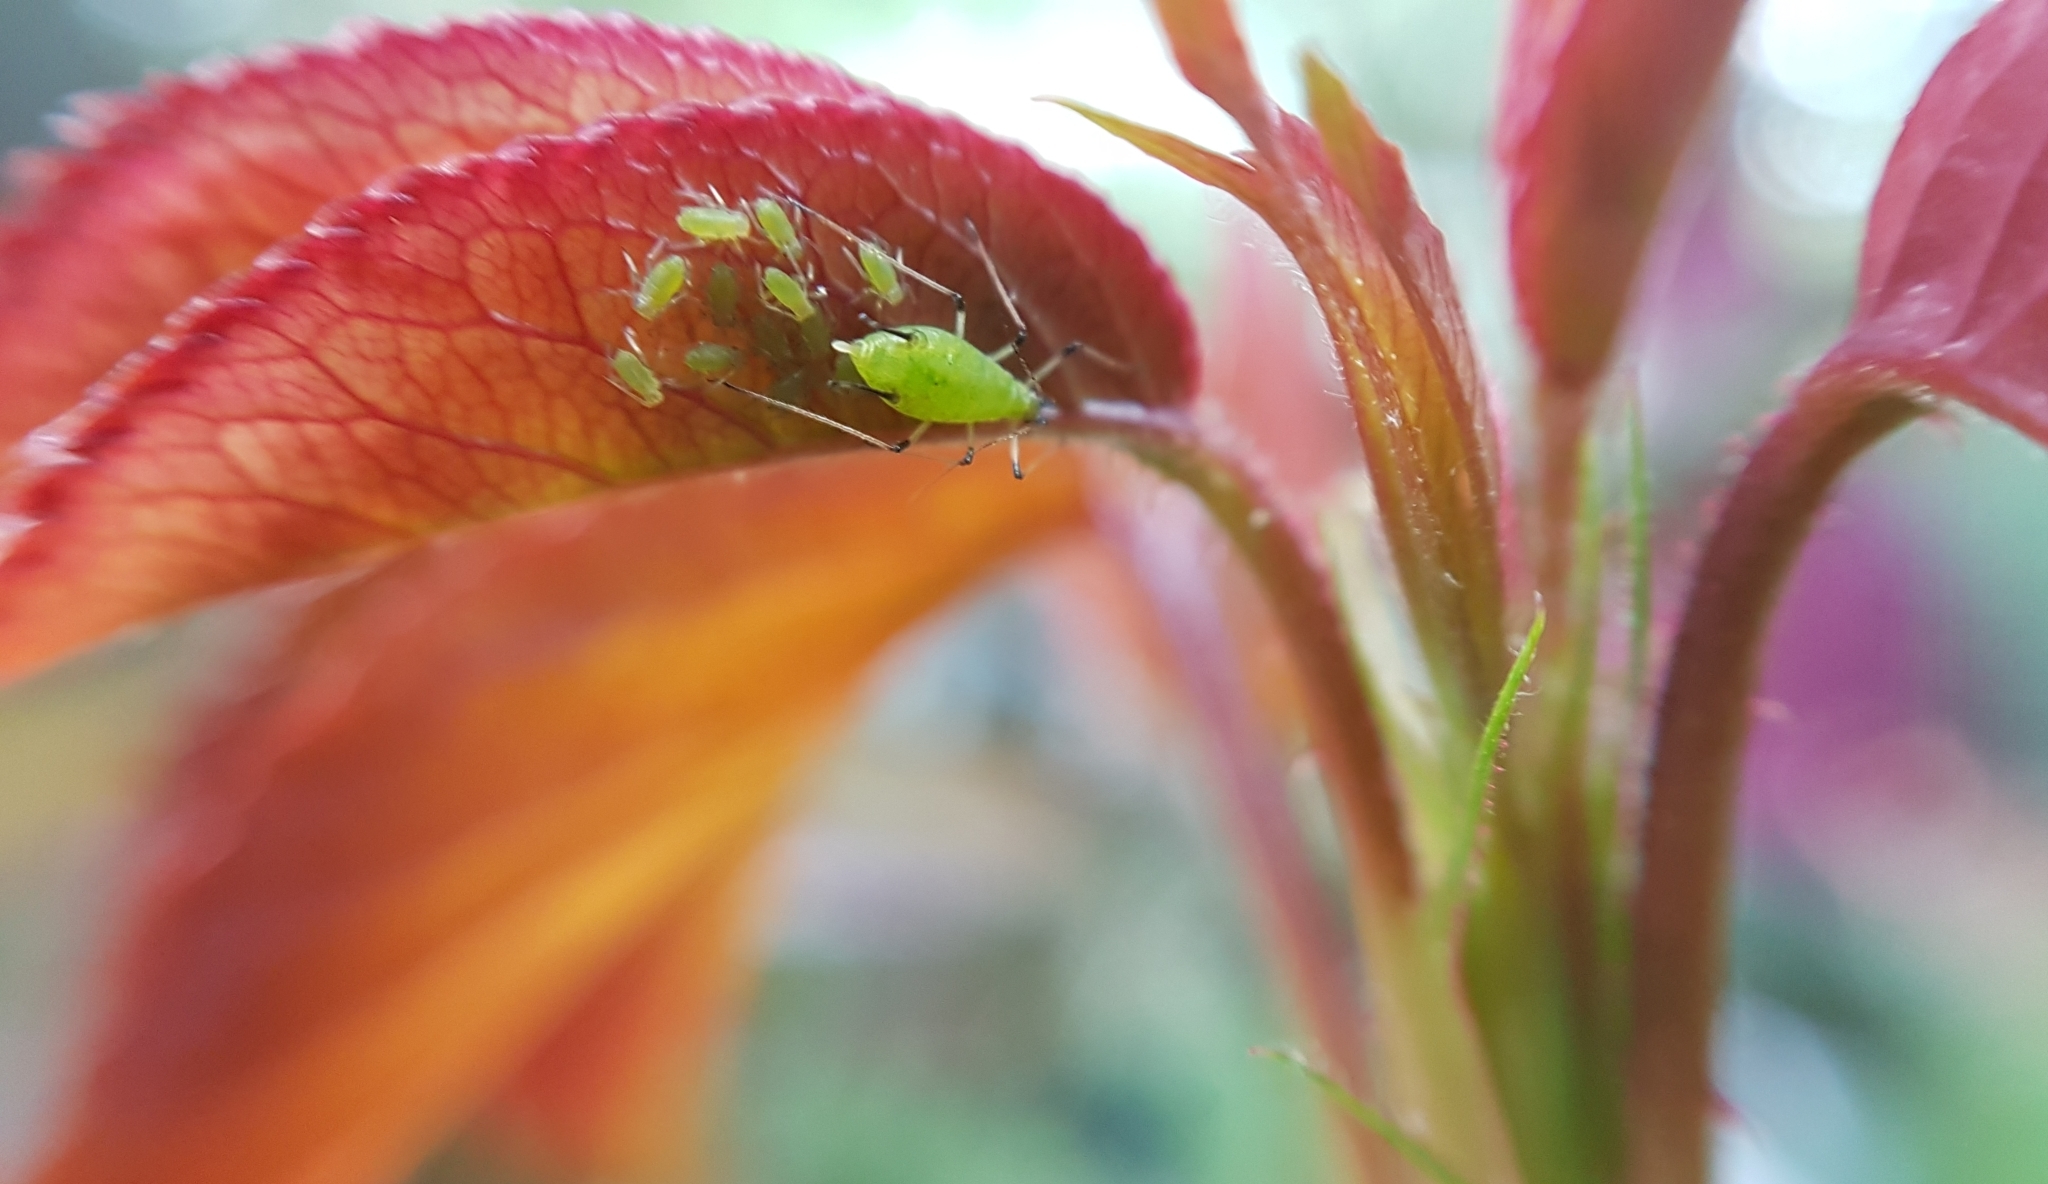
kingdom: Animalia
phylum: Arthropoda
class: Insecta
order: Hemiptera
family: Aphididae
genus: Macrosiphum
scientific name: Macrosiphum rosae
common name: Rose aphid
